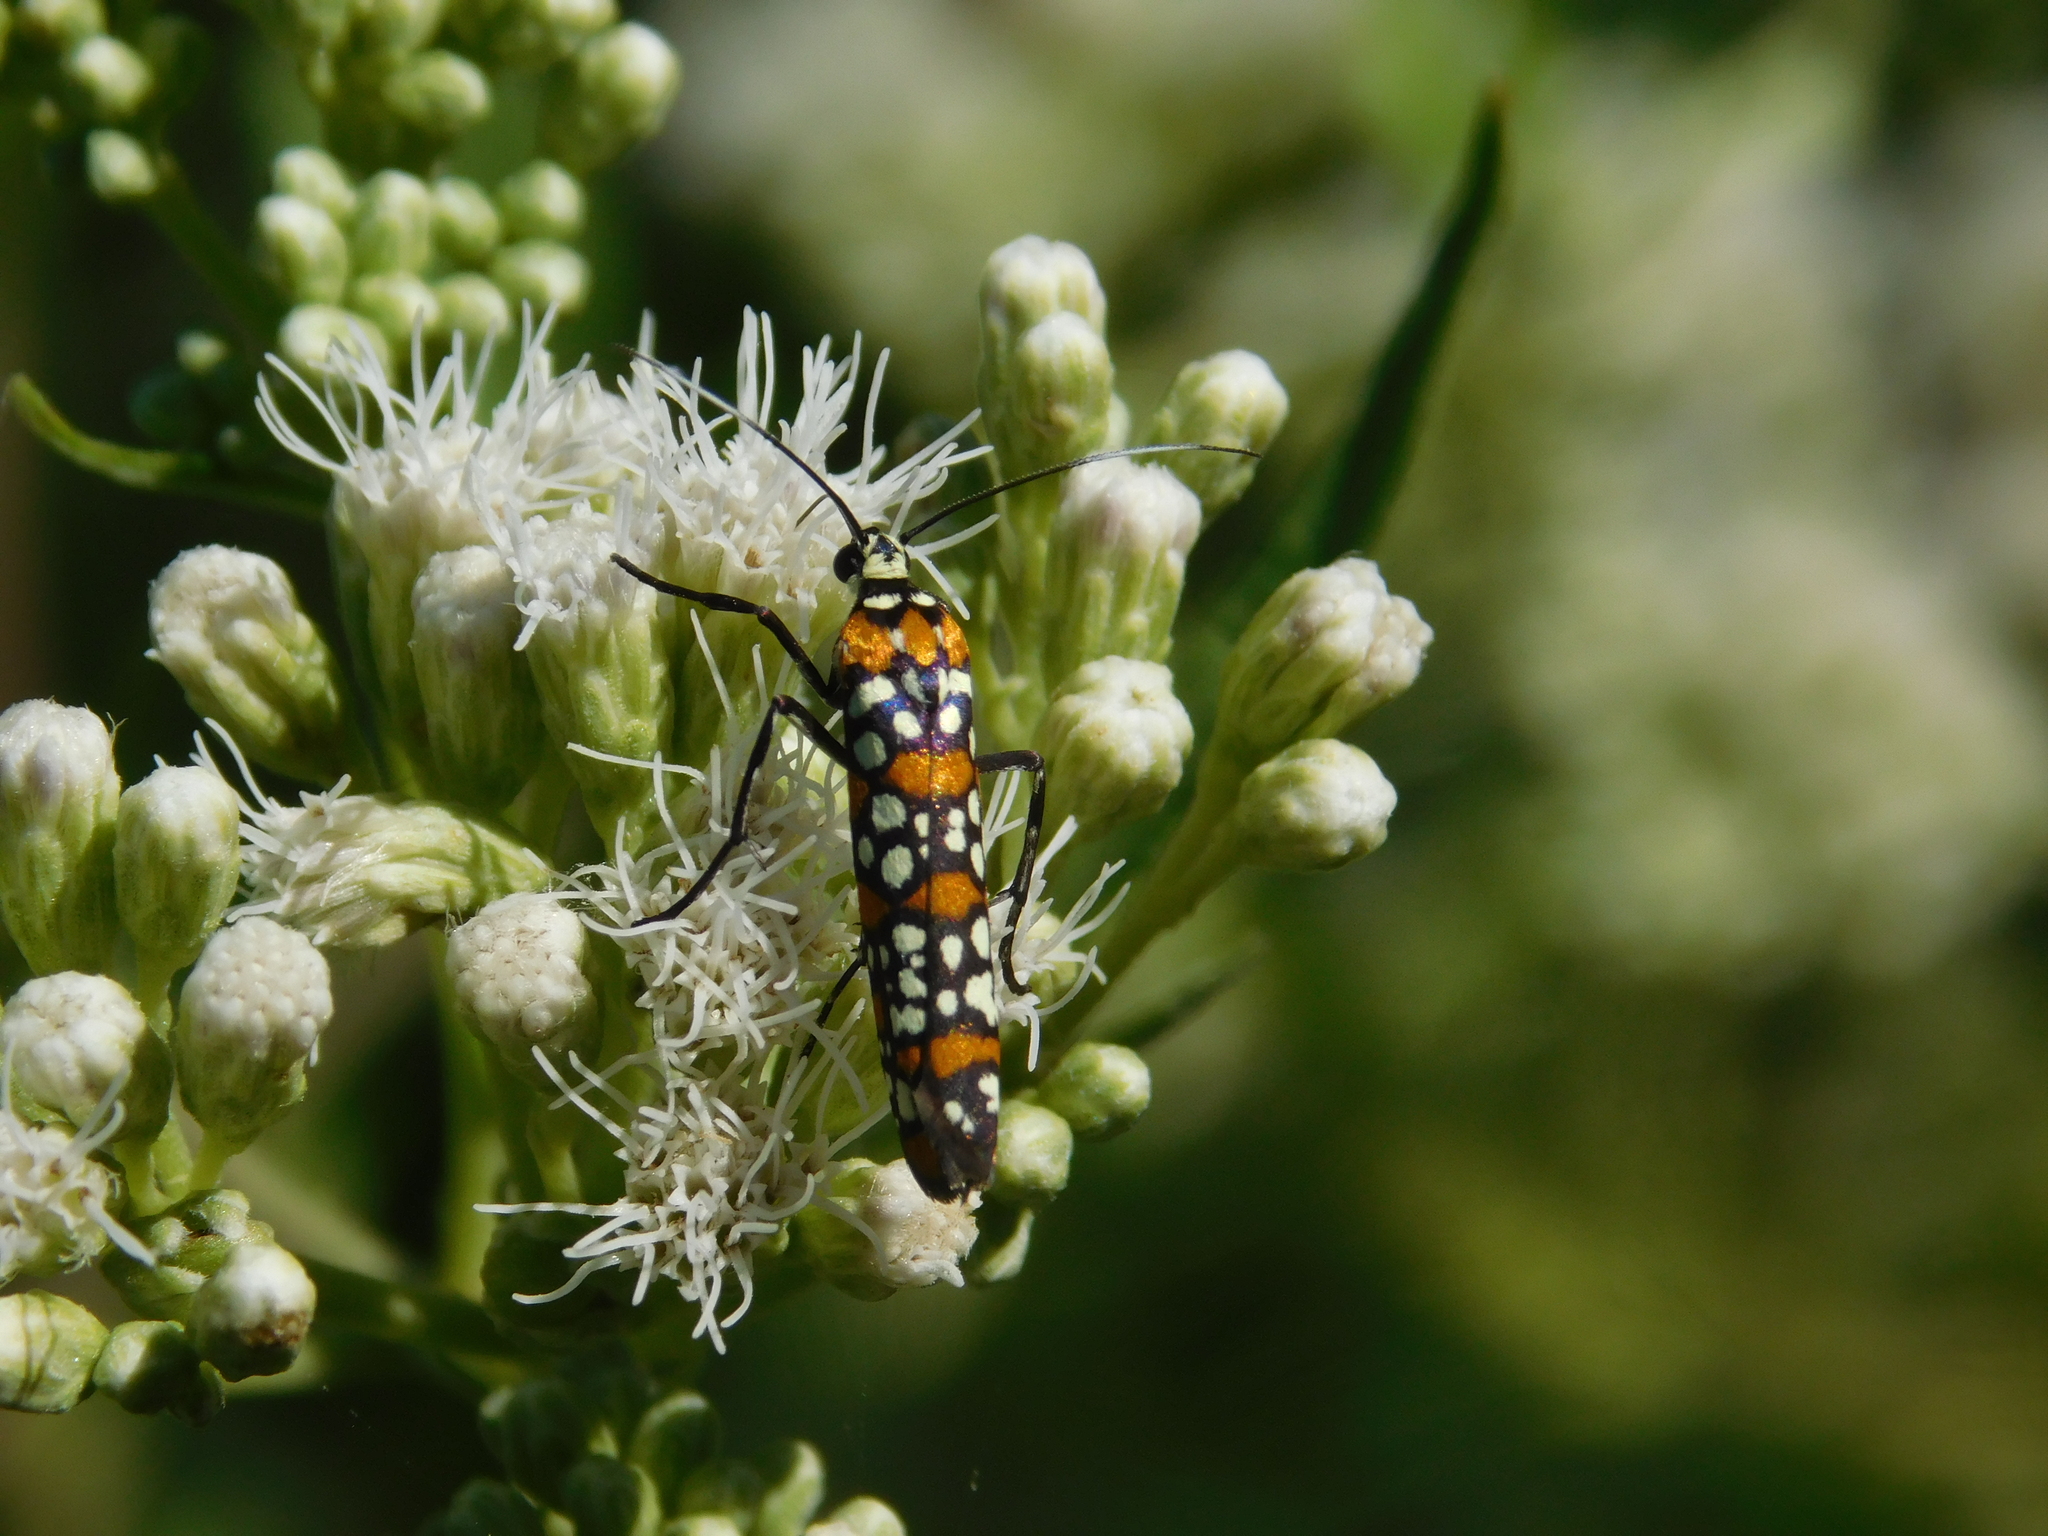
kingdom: Animalia
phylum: Arthropoda
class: Insecta
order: Lepidoptera
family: Attevidae
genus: Atteva
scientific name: Atteva punctella
